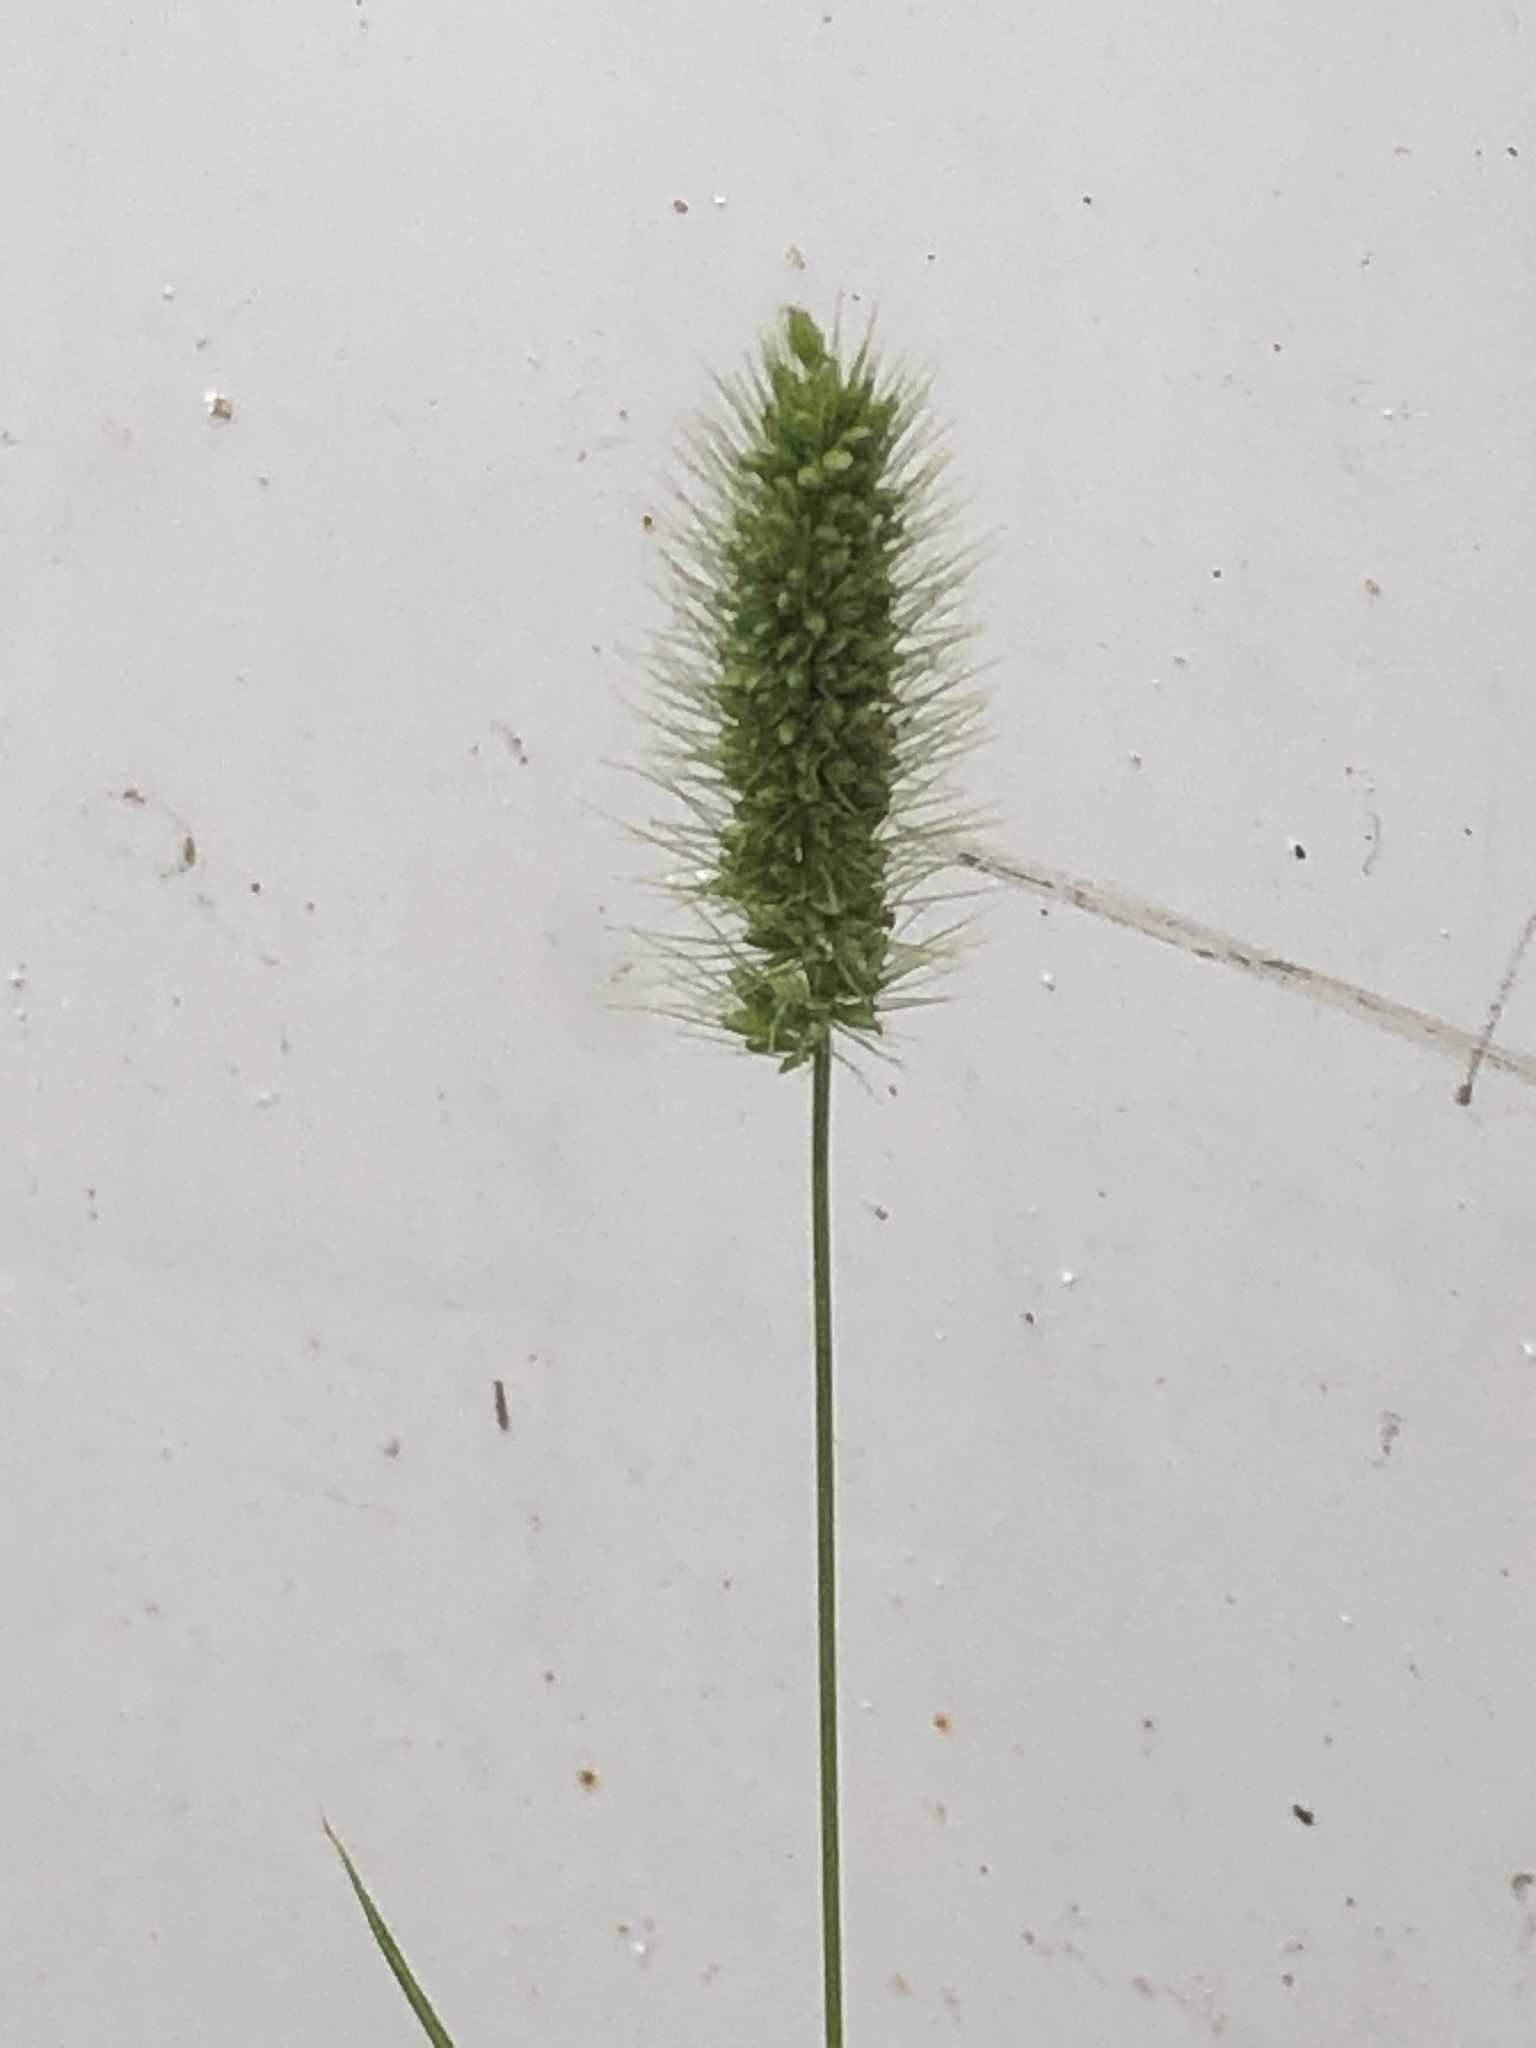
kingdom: Plantae
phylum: Tracheophyta
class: Liliopsida
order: Poales
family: Poaceae
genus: Setaria
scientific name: Setaria viridis
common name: Green bristlegrass
